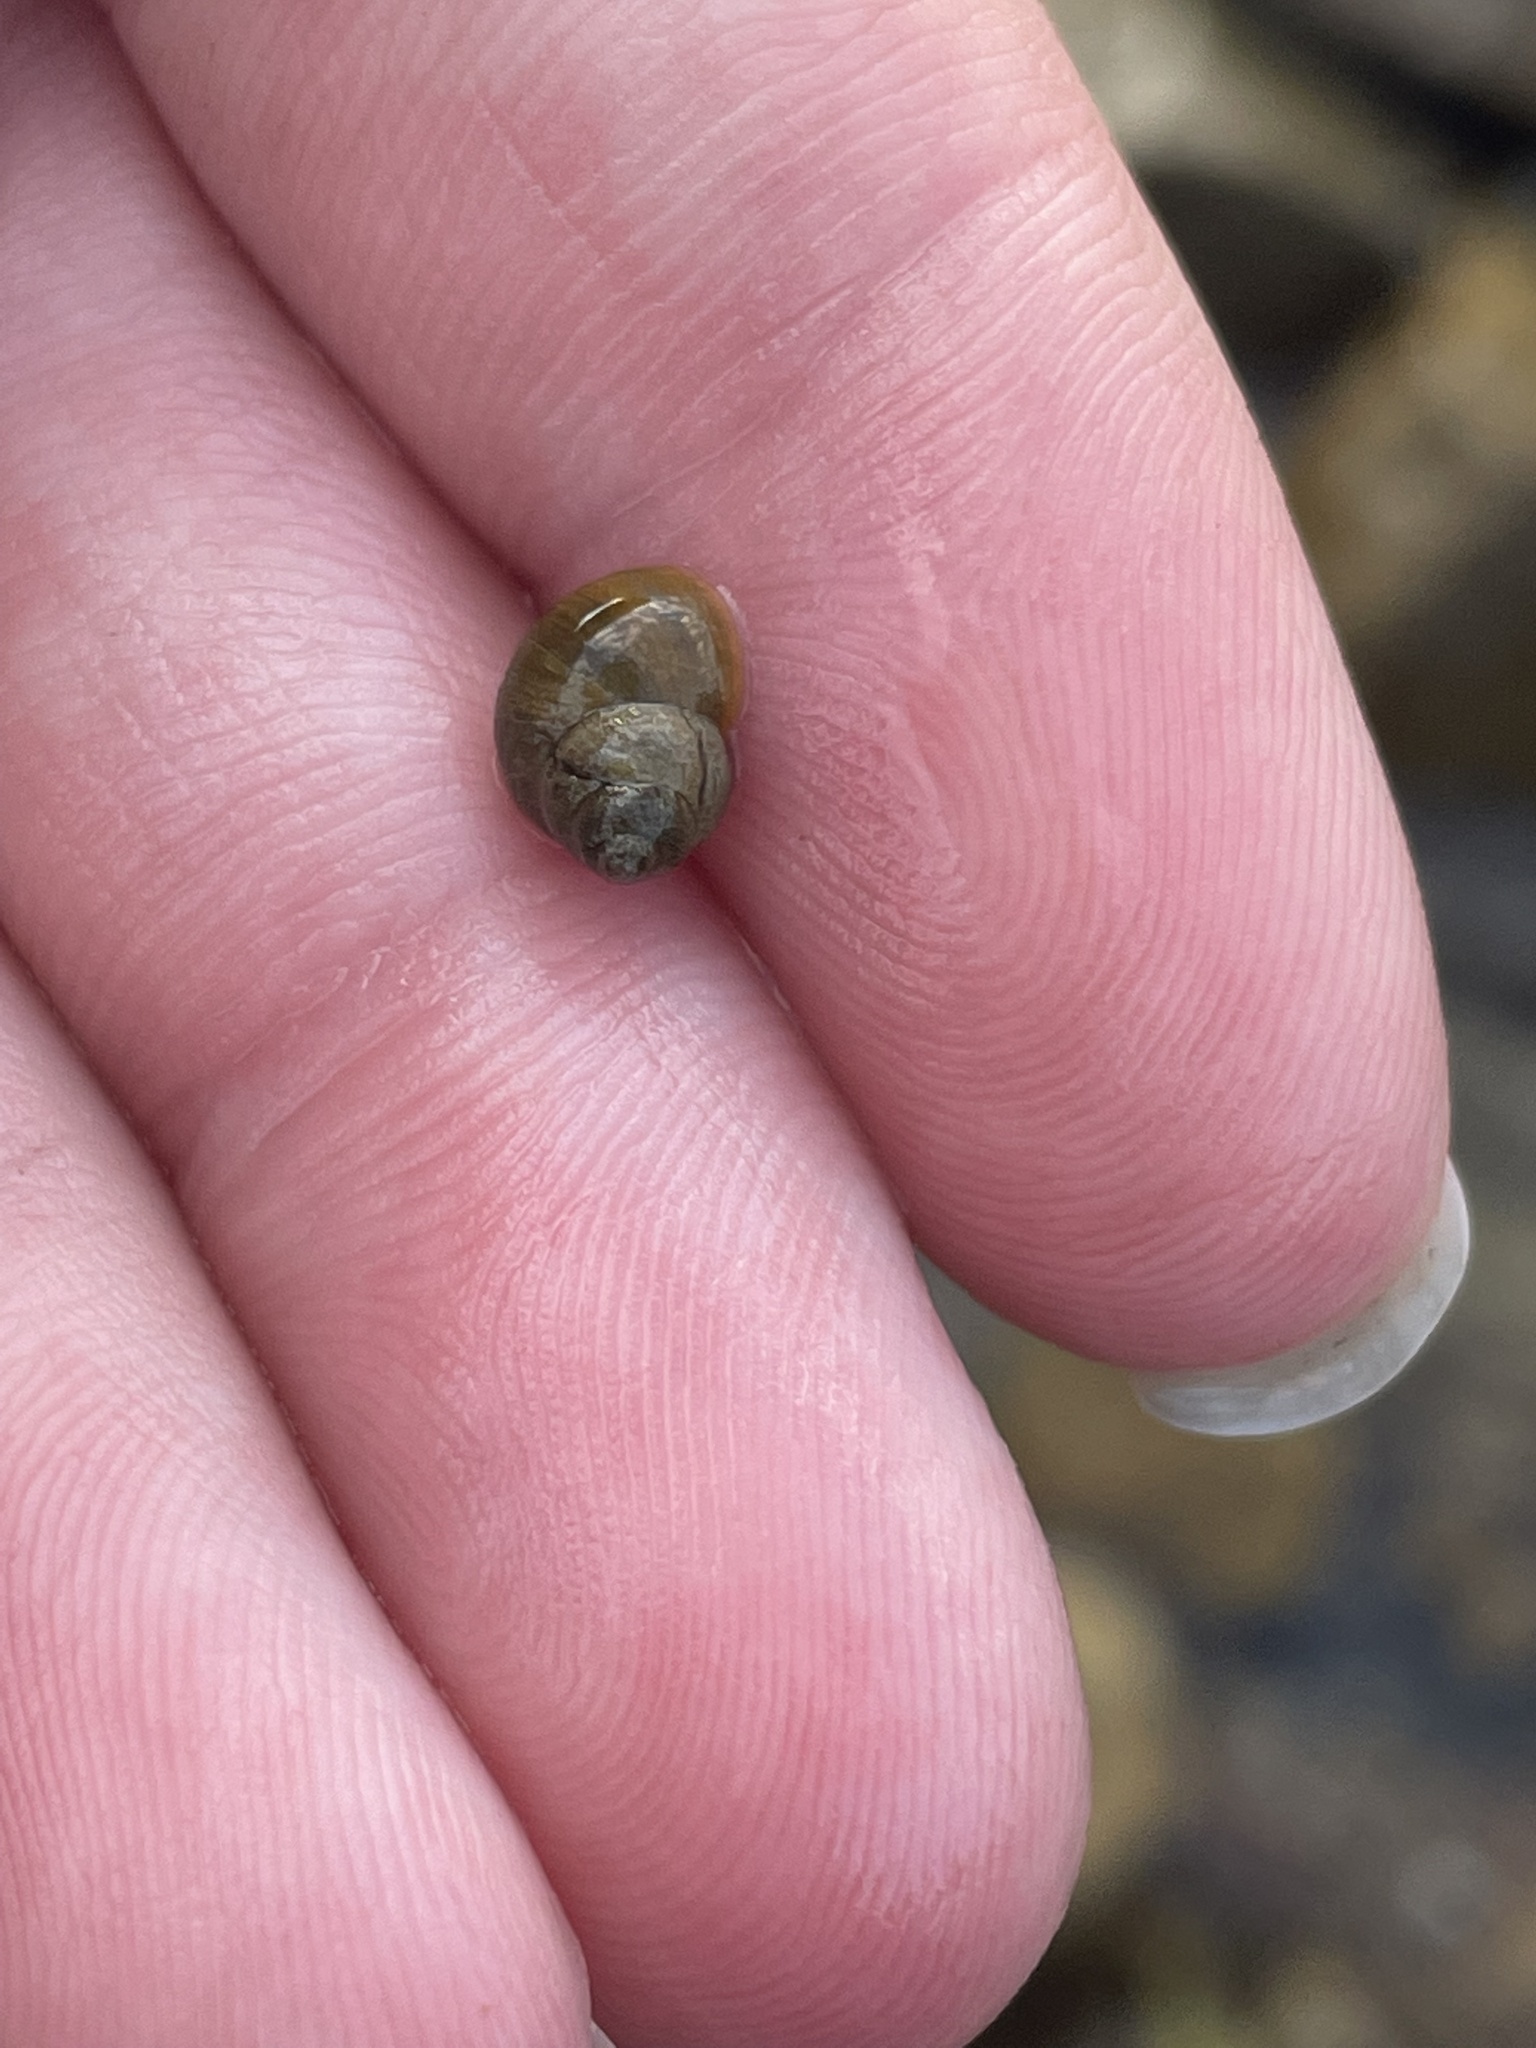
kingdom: Animalia
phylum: Mollusca
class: Gastropoda
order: Littorinimorpha
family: Littorinidae
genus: Littorina
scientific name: Littorina saxatilis
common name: Black-lined periwinkle
